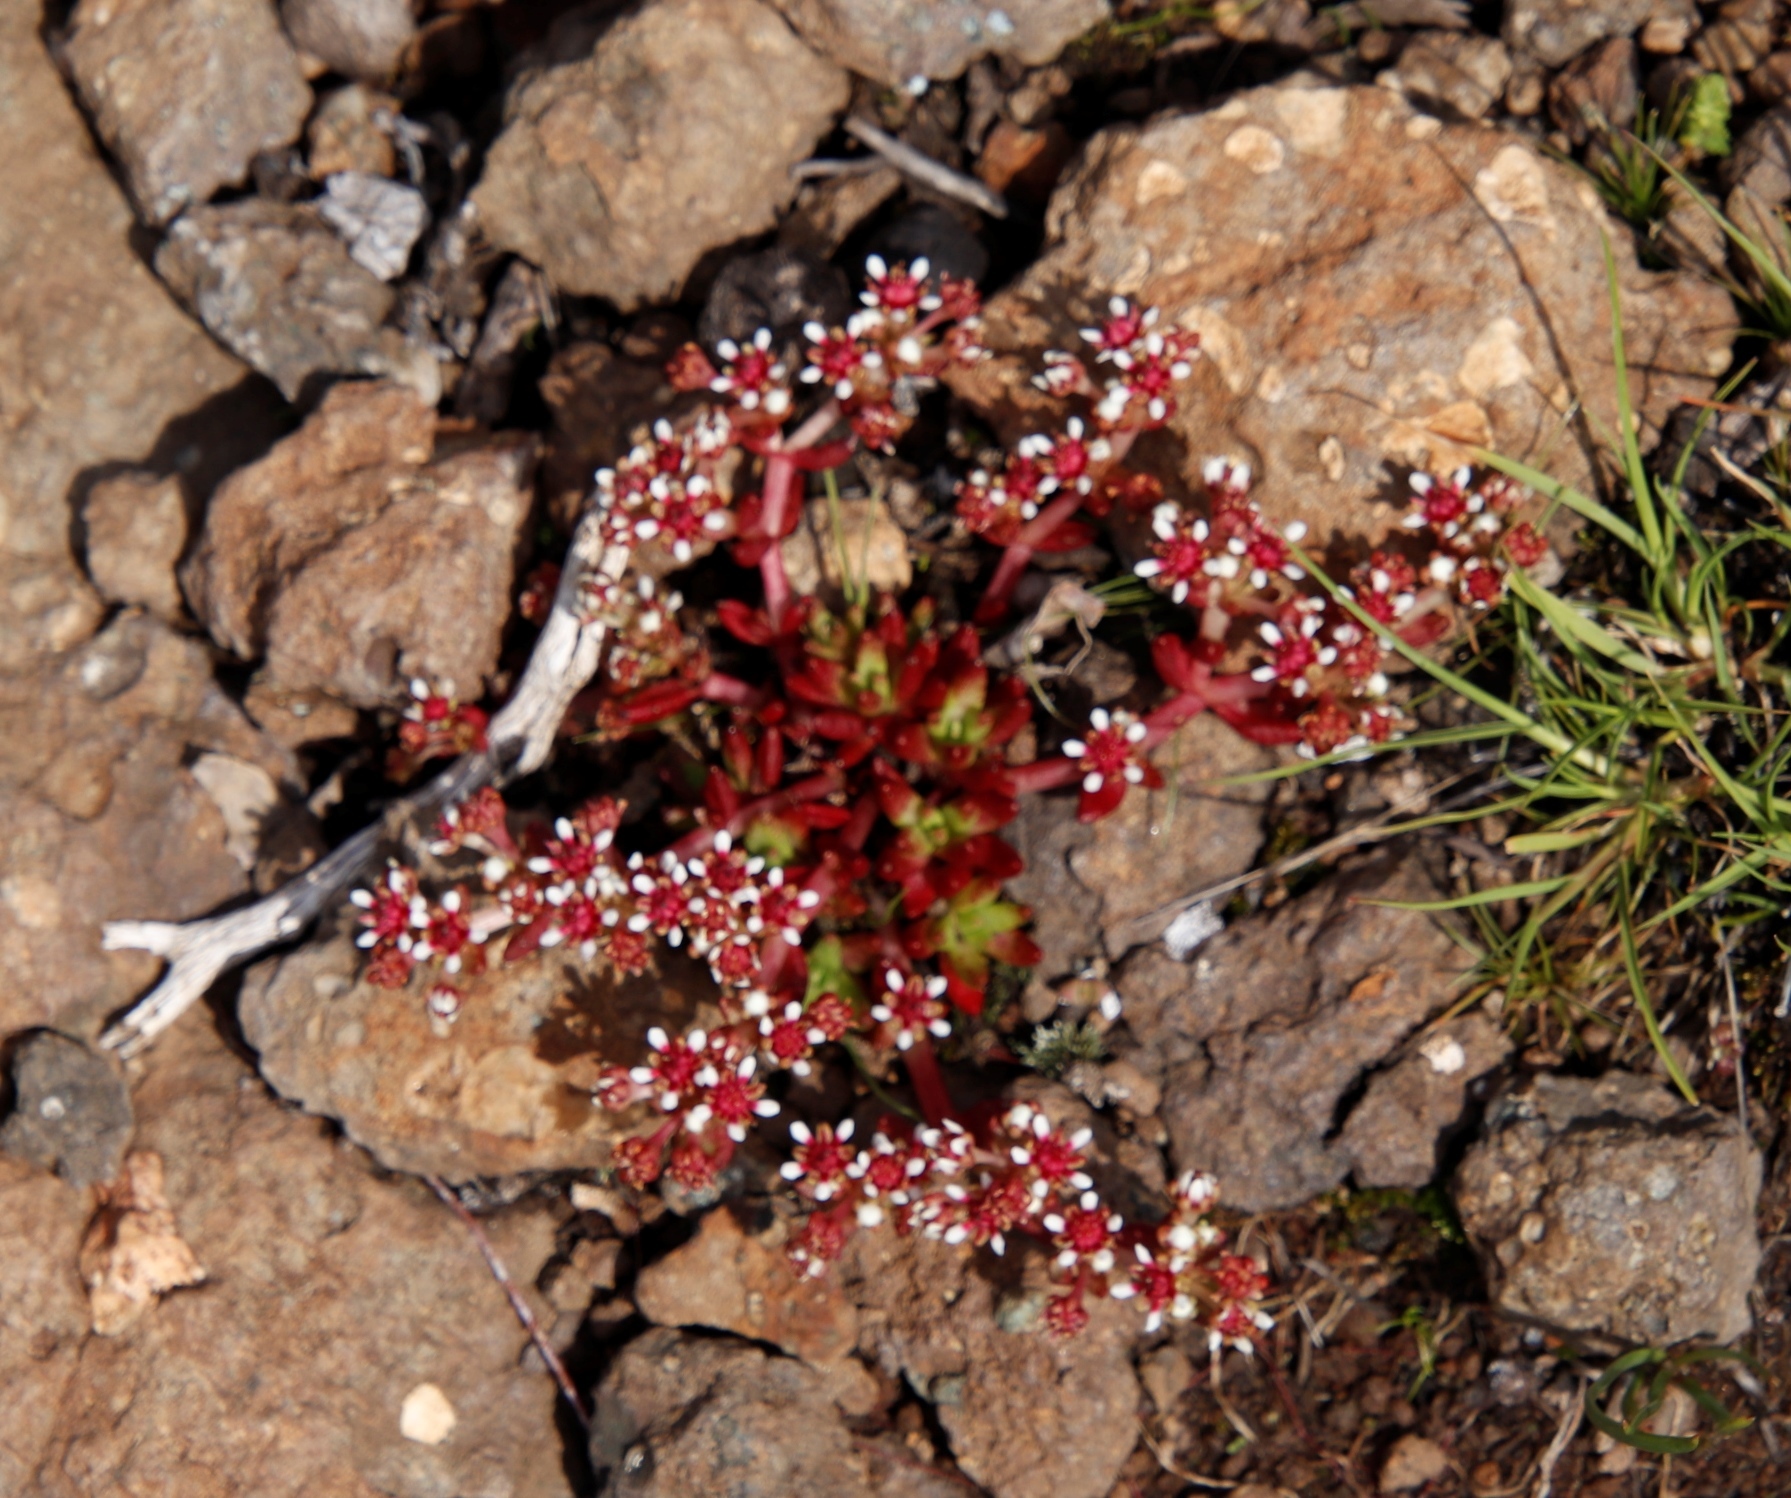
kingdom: Plantae
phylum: Tracheophyta
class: Magnoliopsida
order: Saxifragales
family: Crassulaceae
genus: Crassula
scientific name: Crassula peploides
